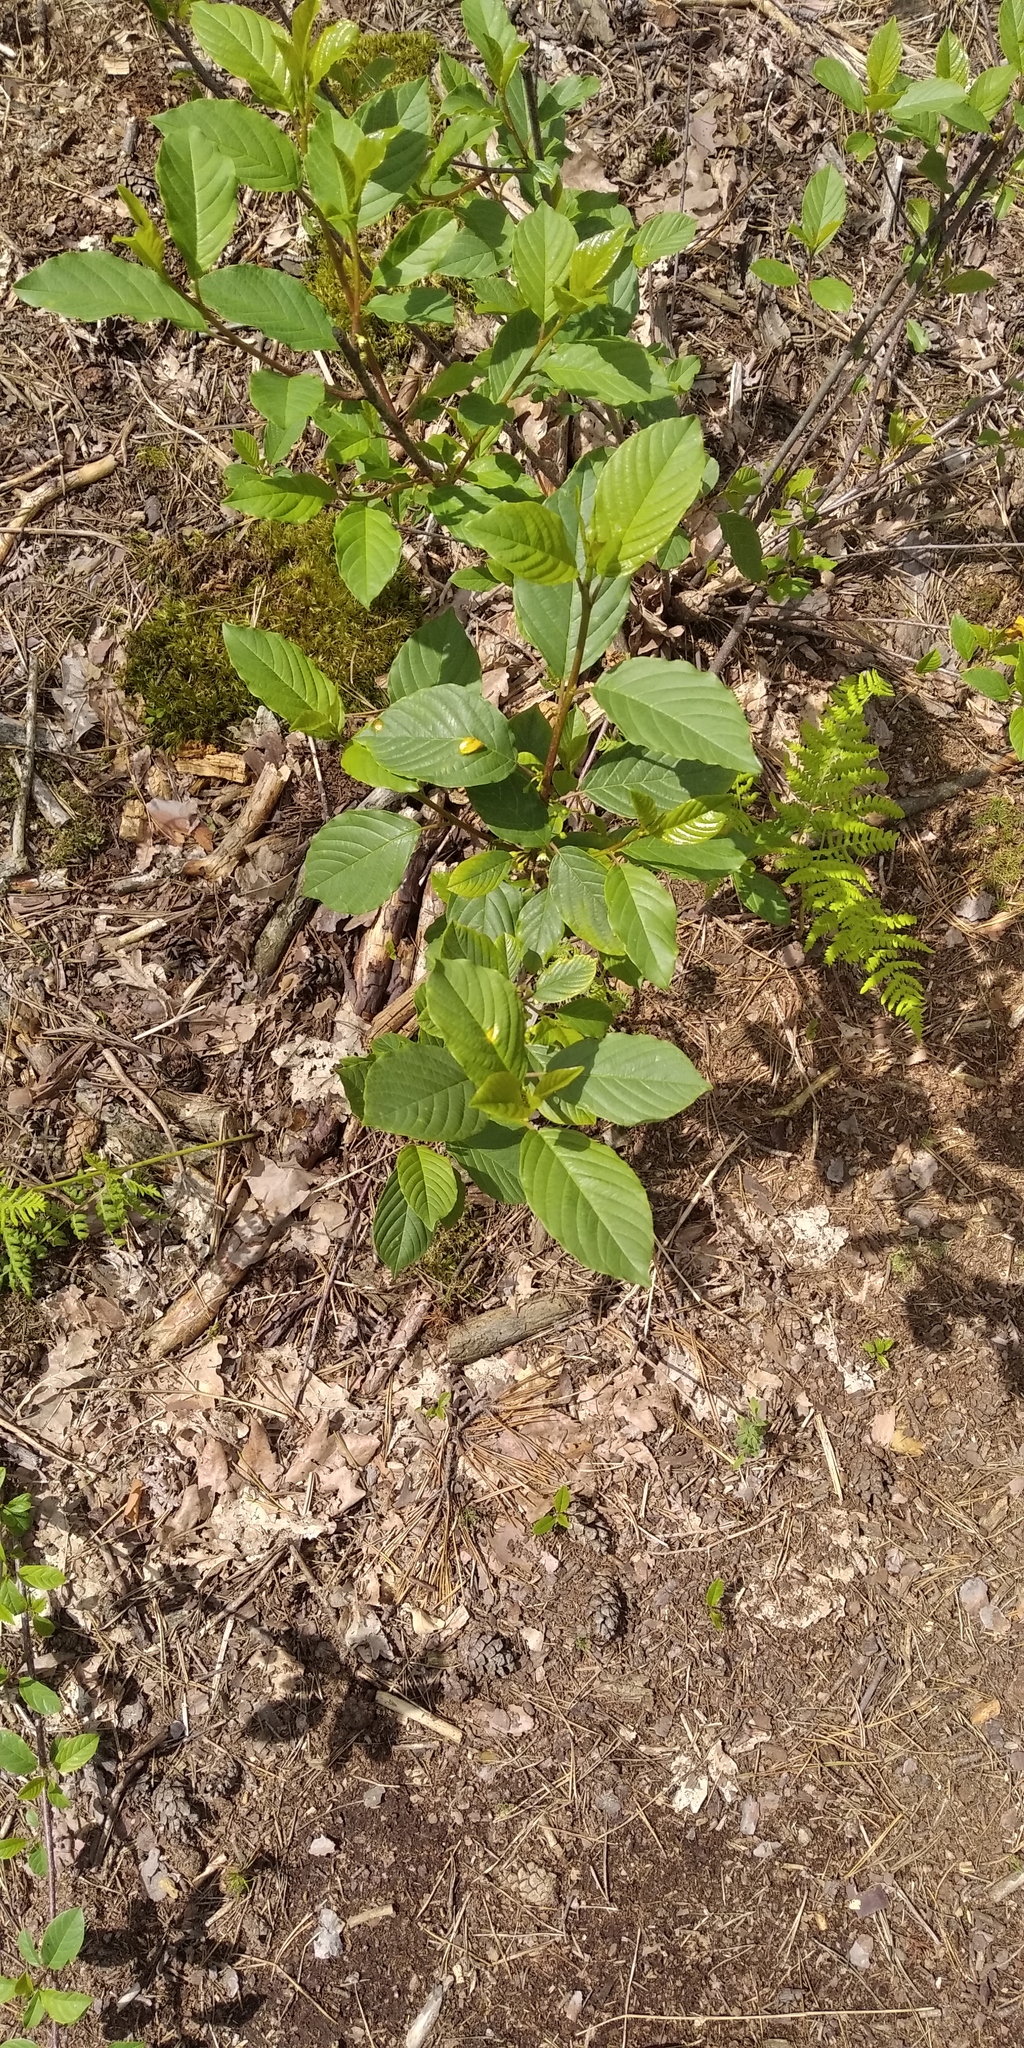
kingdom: Plantae
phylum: Tracheophyta
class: Magnoliopsida
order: Rosales
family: Rhamnaceae
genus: Frangula
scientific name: Frangula alnus
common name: Alder buckthorn
